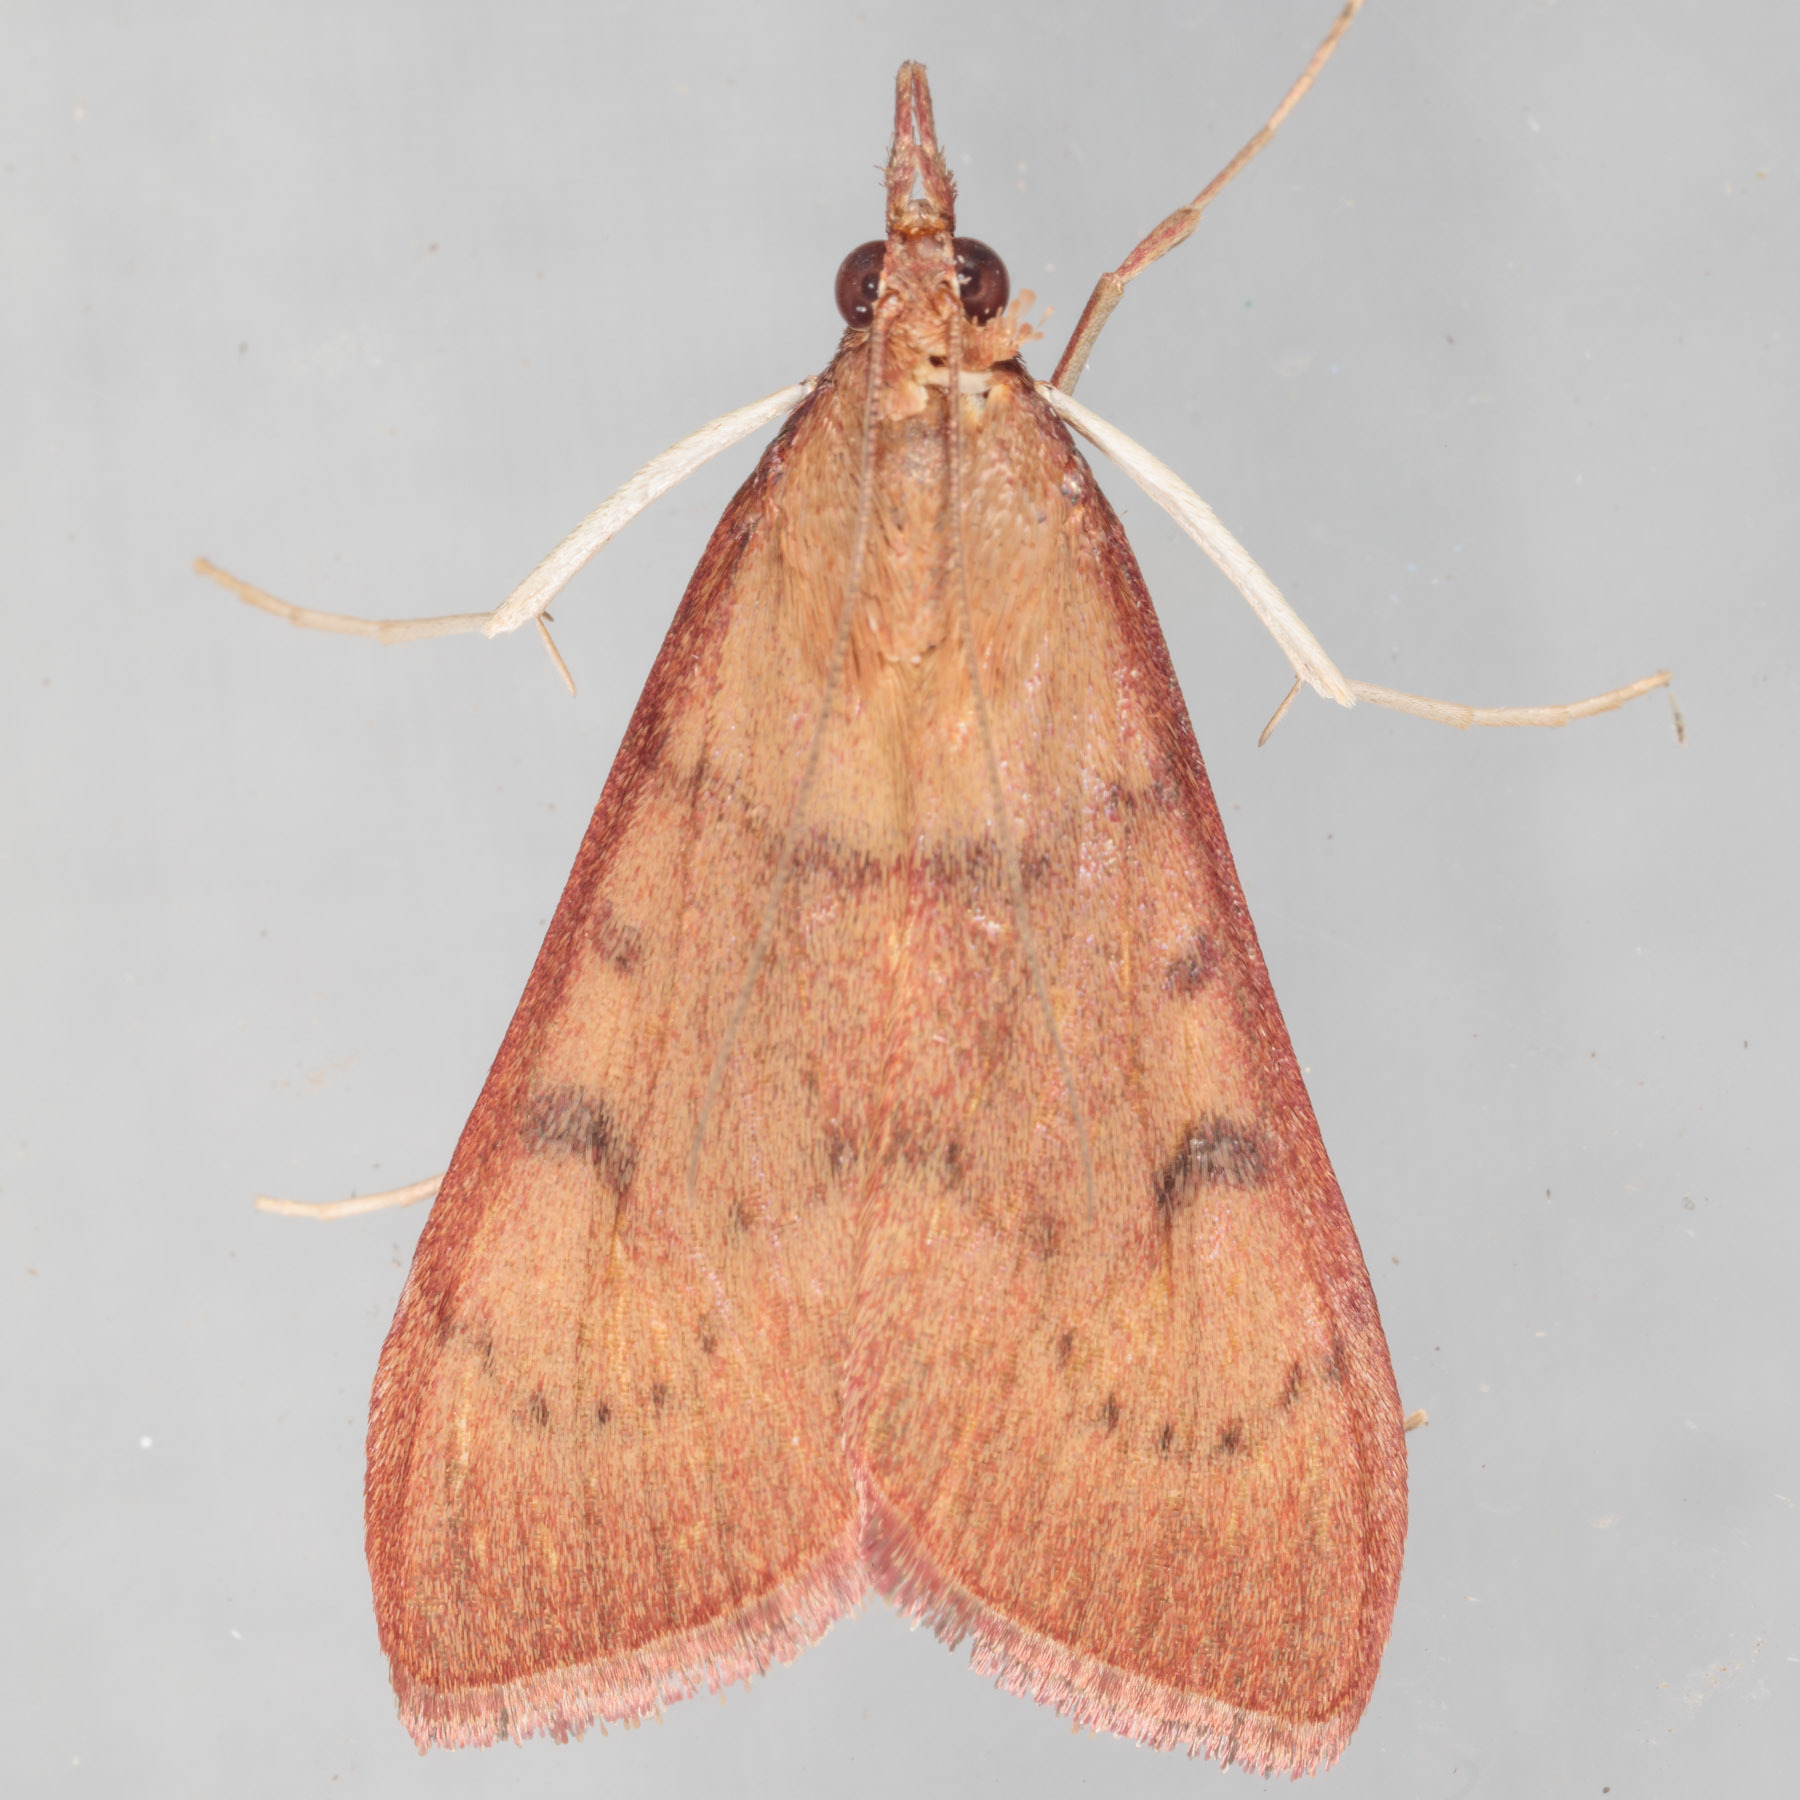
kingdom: Animalia
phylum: Arthropoda
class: Insecta
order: Lepidoptera
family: Crambidae
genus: Uresiphita
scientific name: Uresiphita reversalis
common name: Genista broom moth
